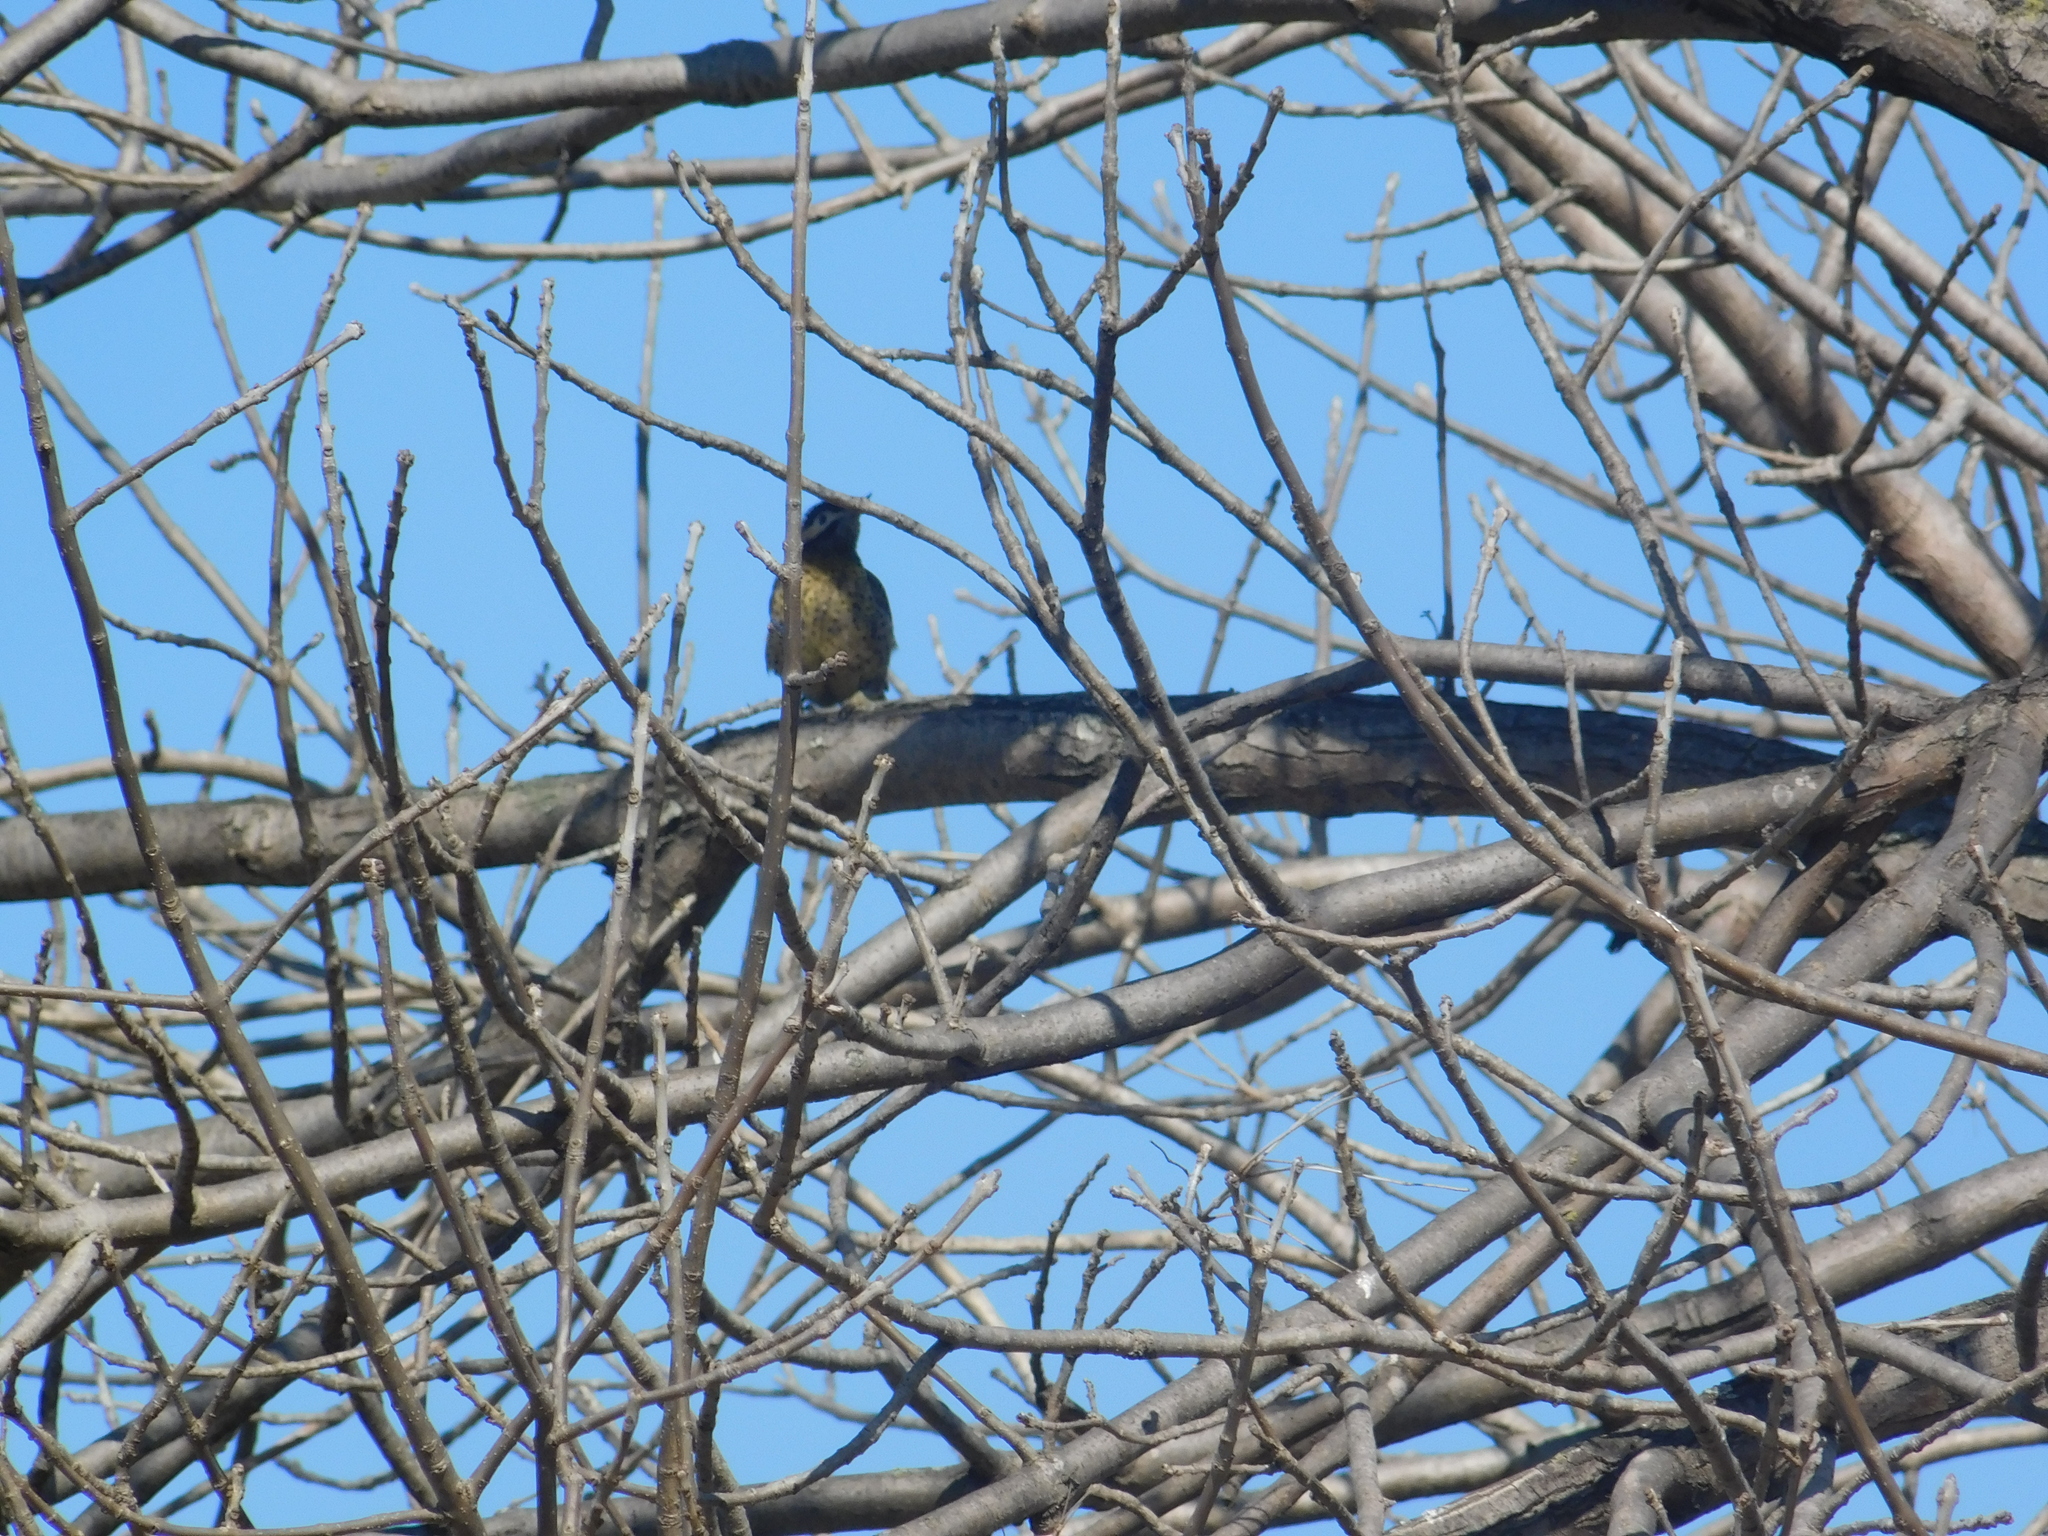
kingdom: Animalia
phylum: Chordata
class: Aves
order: Piciformes
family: Picidae
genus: Colaptes
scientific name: Colaptes melanochloros
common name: Green-barred woodpecker
